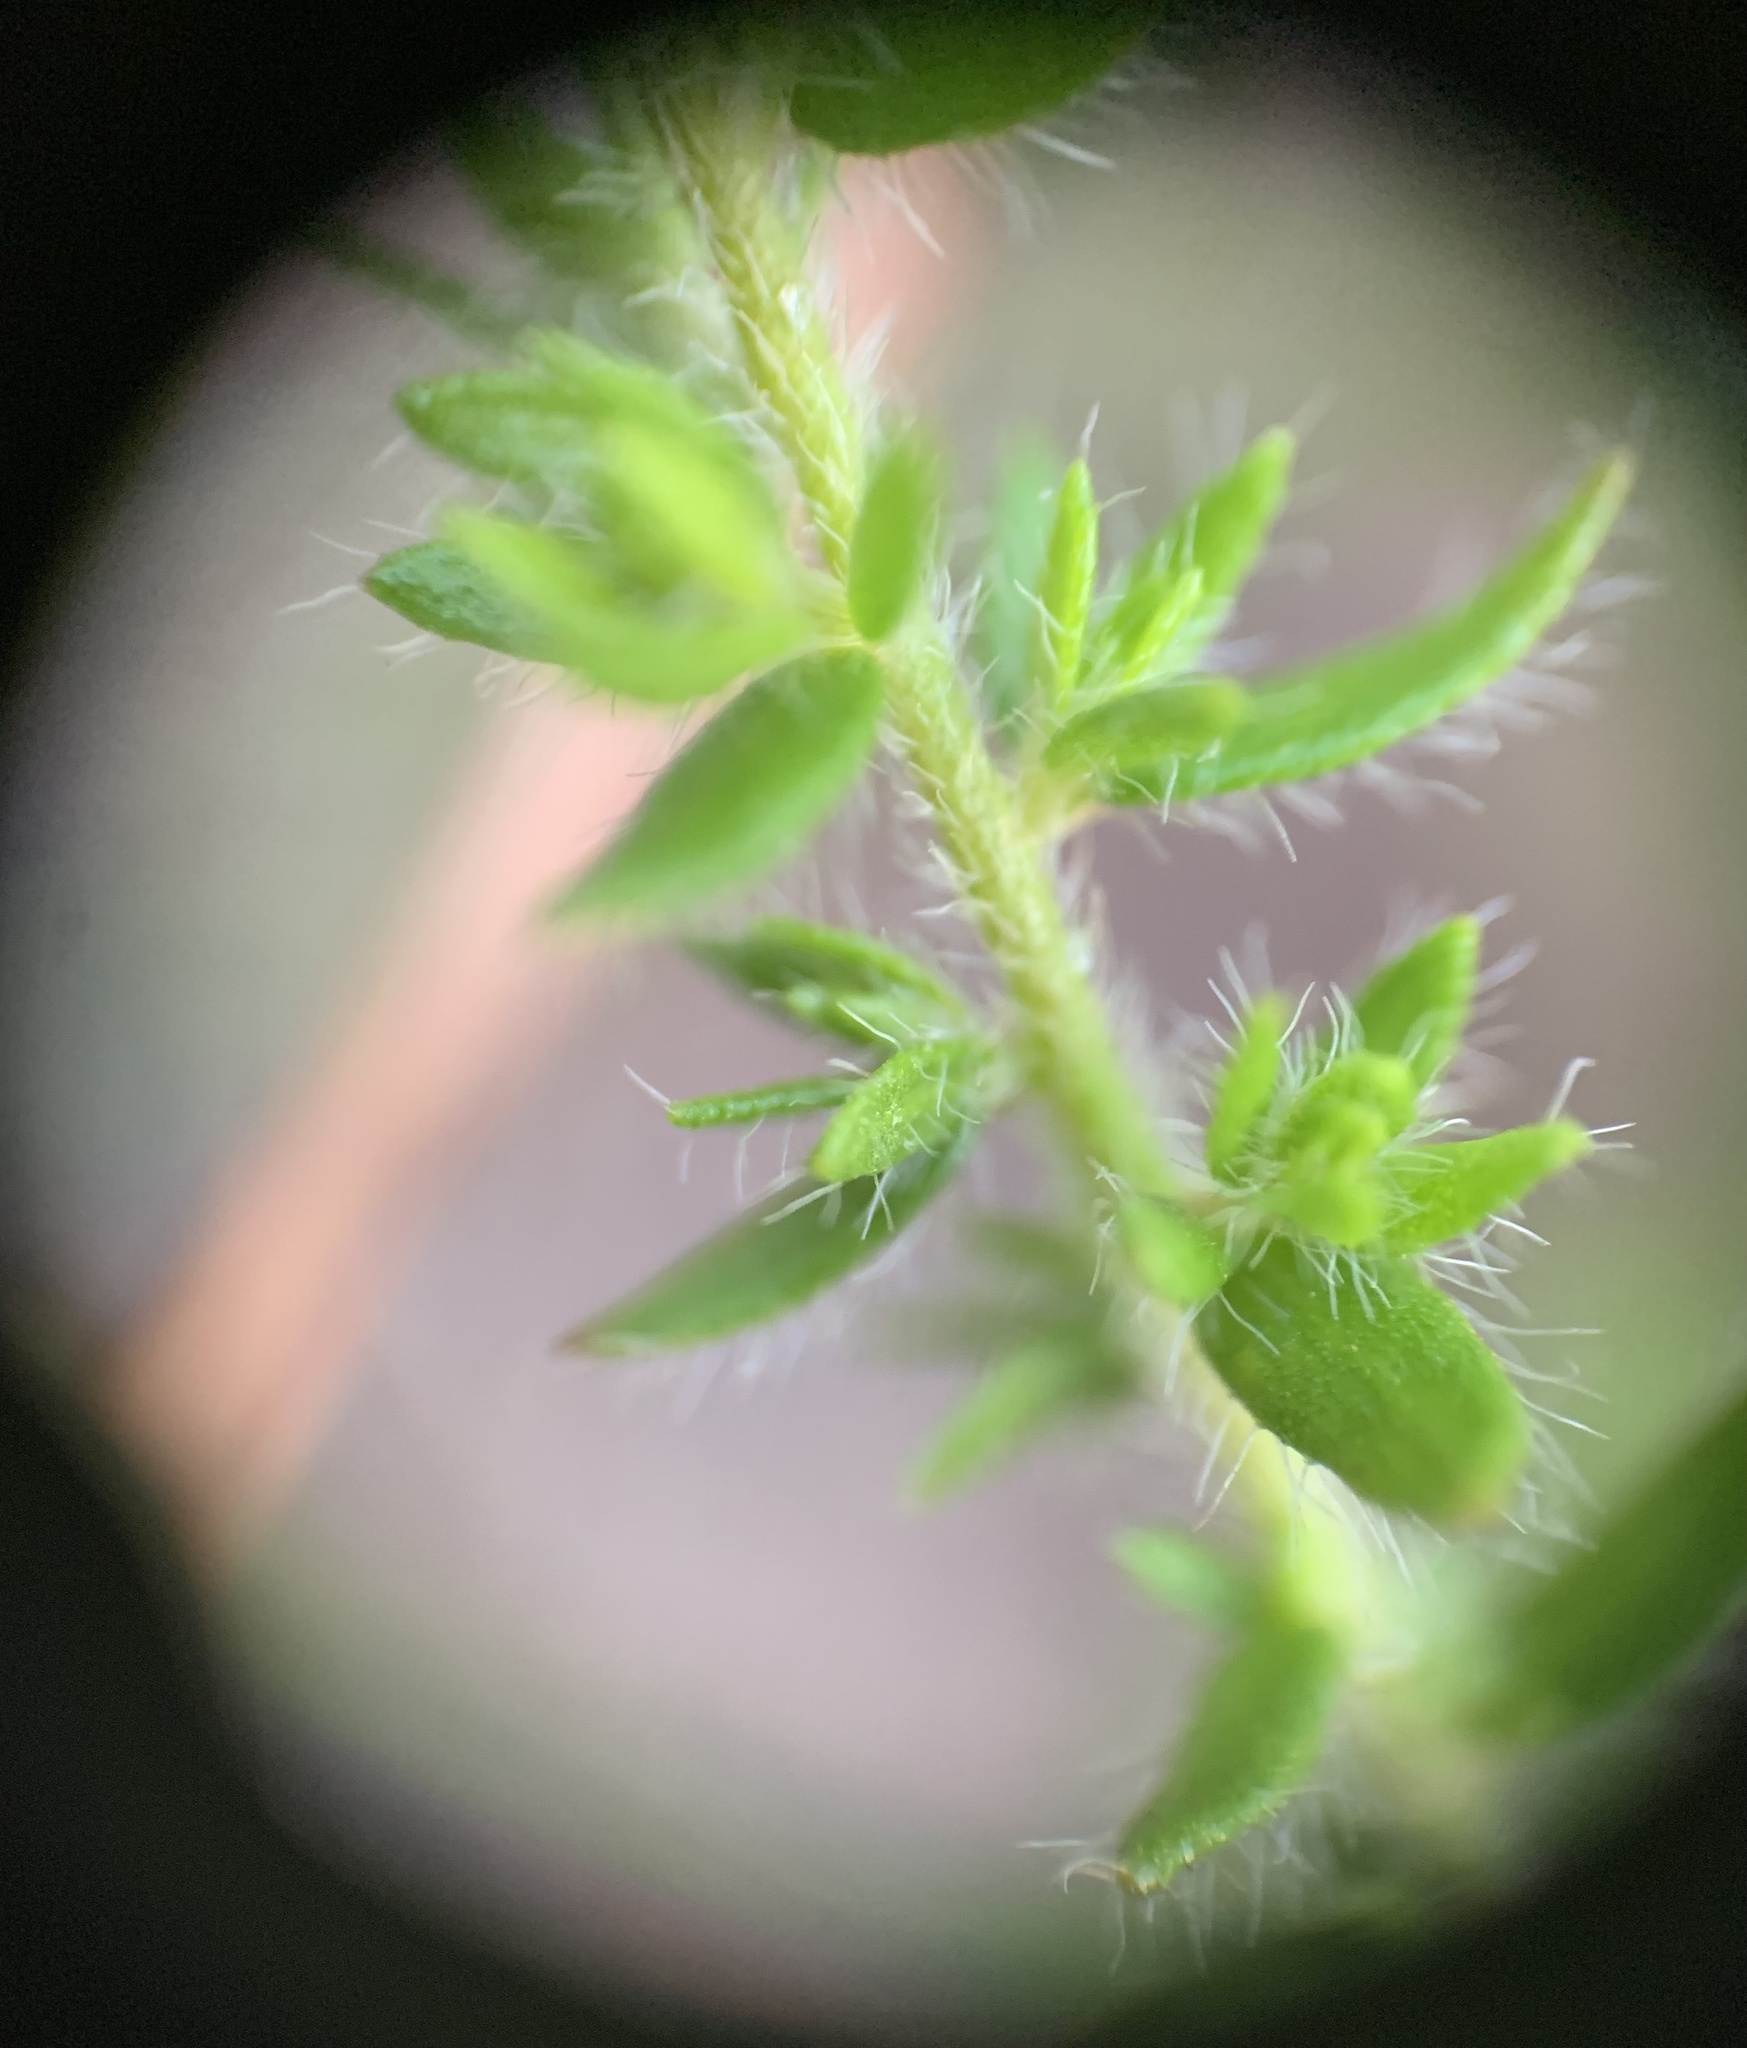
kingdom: Plantae
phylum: Tracheophyta
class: Magnoliopsida
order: Malvales
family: Cistaceae
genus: Lechea
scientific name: Lechea divaricata
